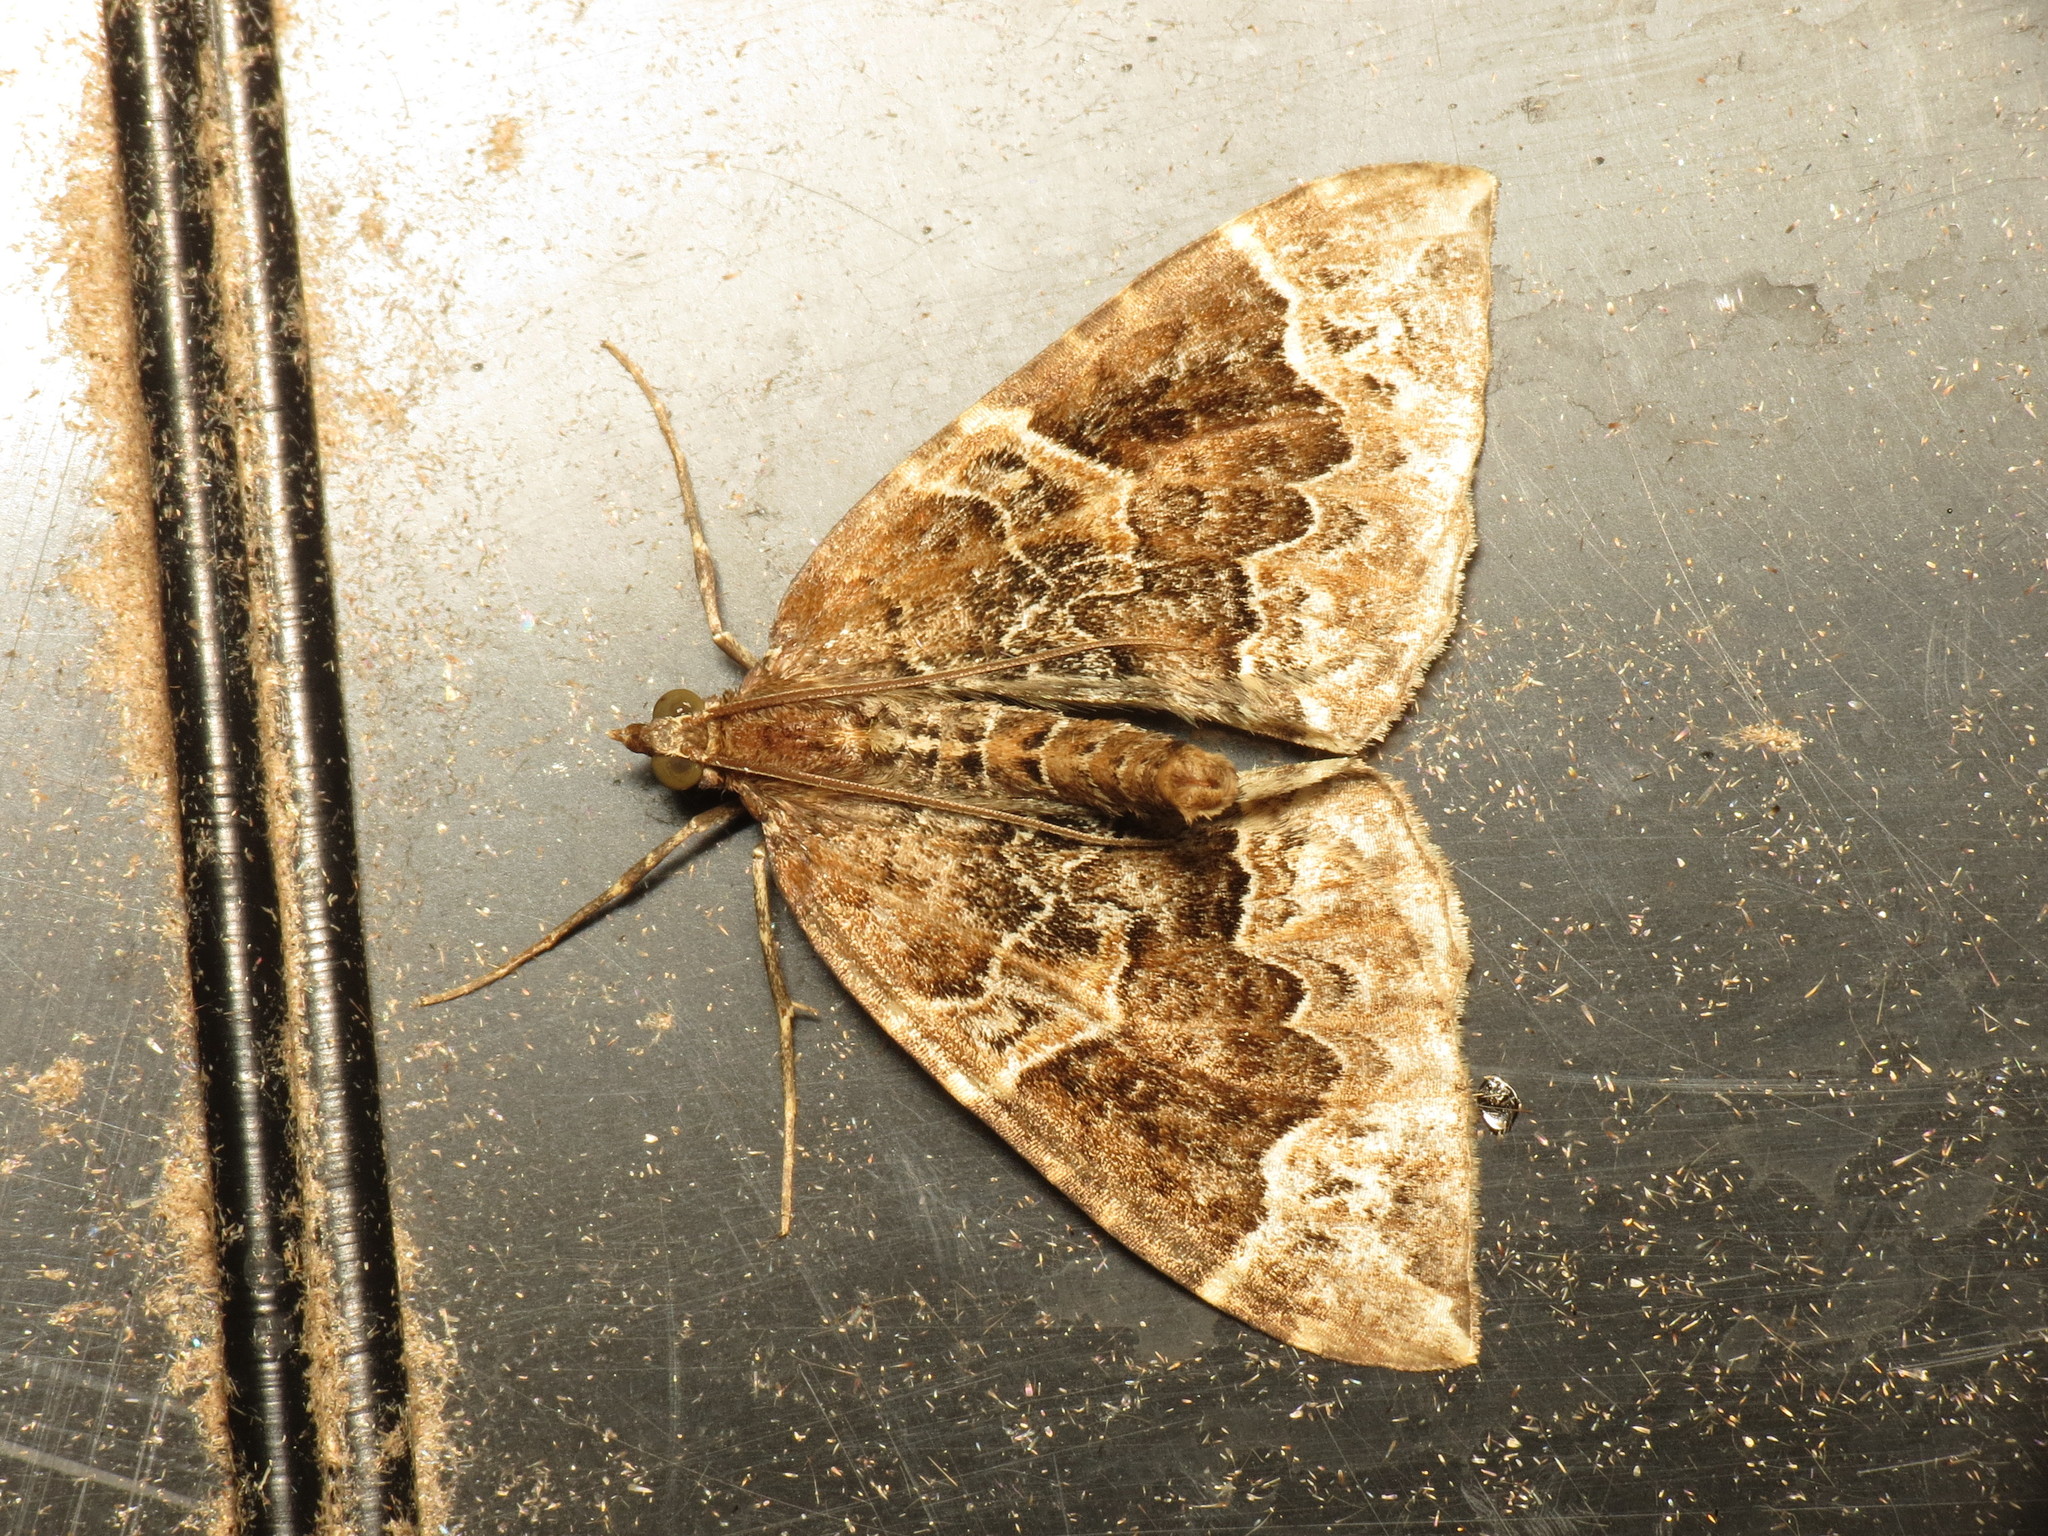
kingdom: Animalia
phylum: Arthropoda
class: Insecta
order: Lepidoptera
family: Geometridae
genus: Eulithis
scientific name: Eulithis prunata
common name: Phoenix
